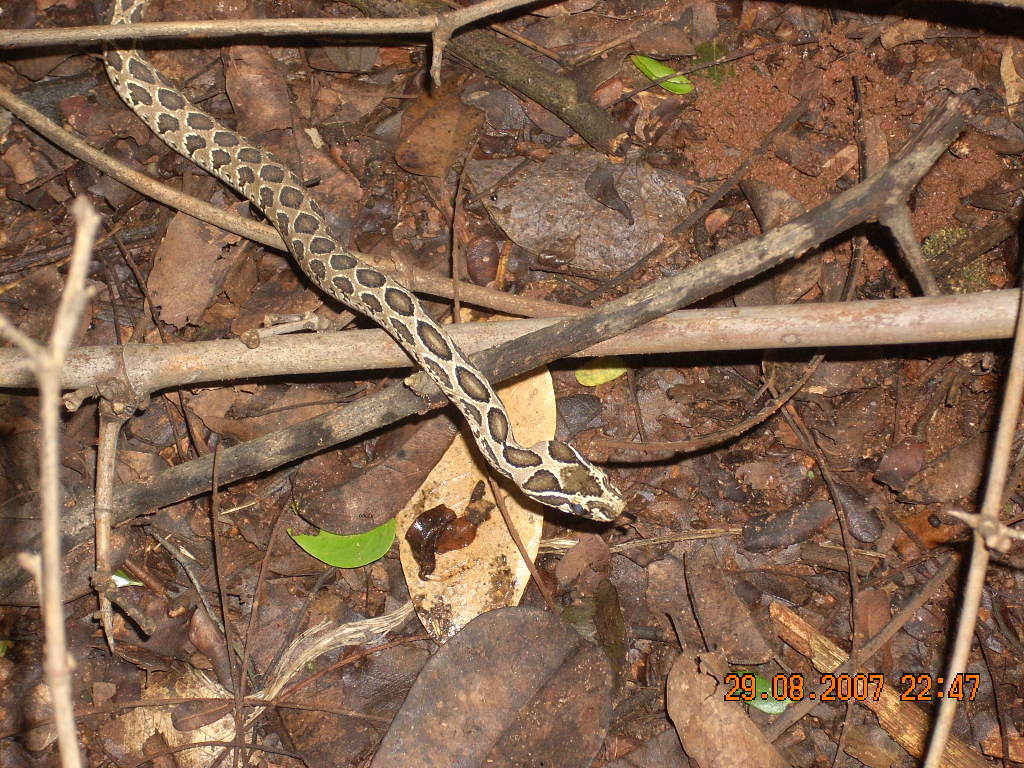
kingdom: Animalia
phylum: Chordata
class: Squamata
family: Viperidae
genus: Daboia
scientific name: Daboia russelii
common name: Western russel’s viper
